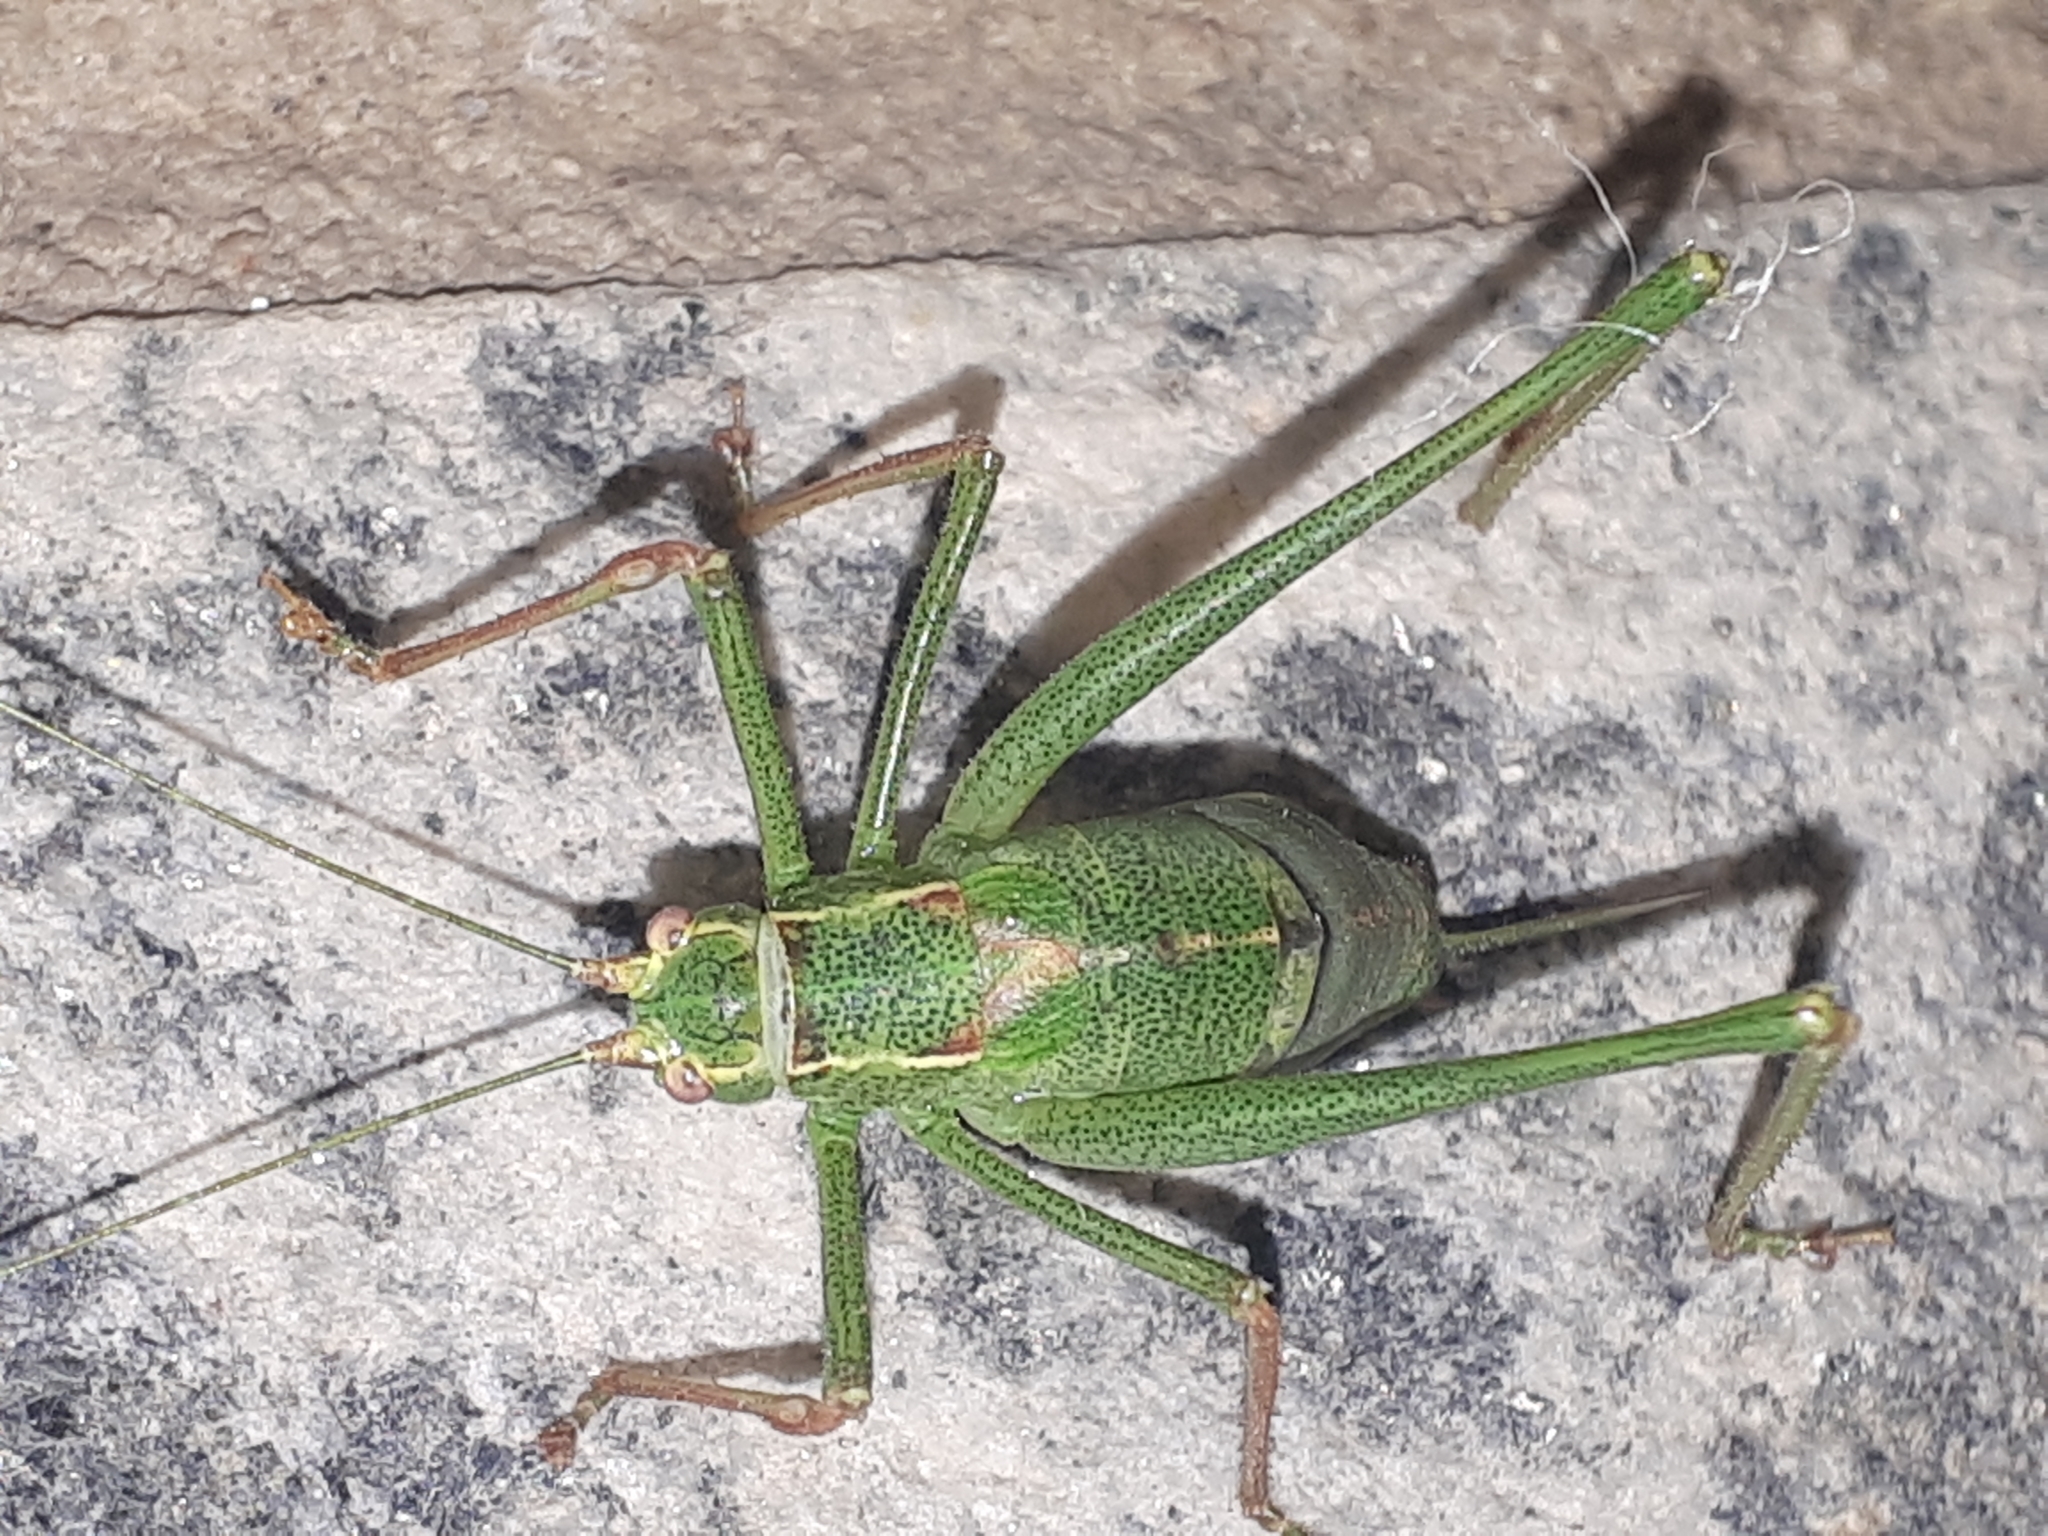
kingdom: Animalia
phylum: Arthropoda
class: Insecta
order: Orthoptera
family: Tettigoniidae
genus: Leptophyes
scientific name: Leptophyes punctatissima
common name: Speckled bush-cricket
